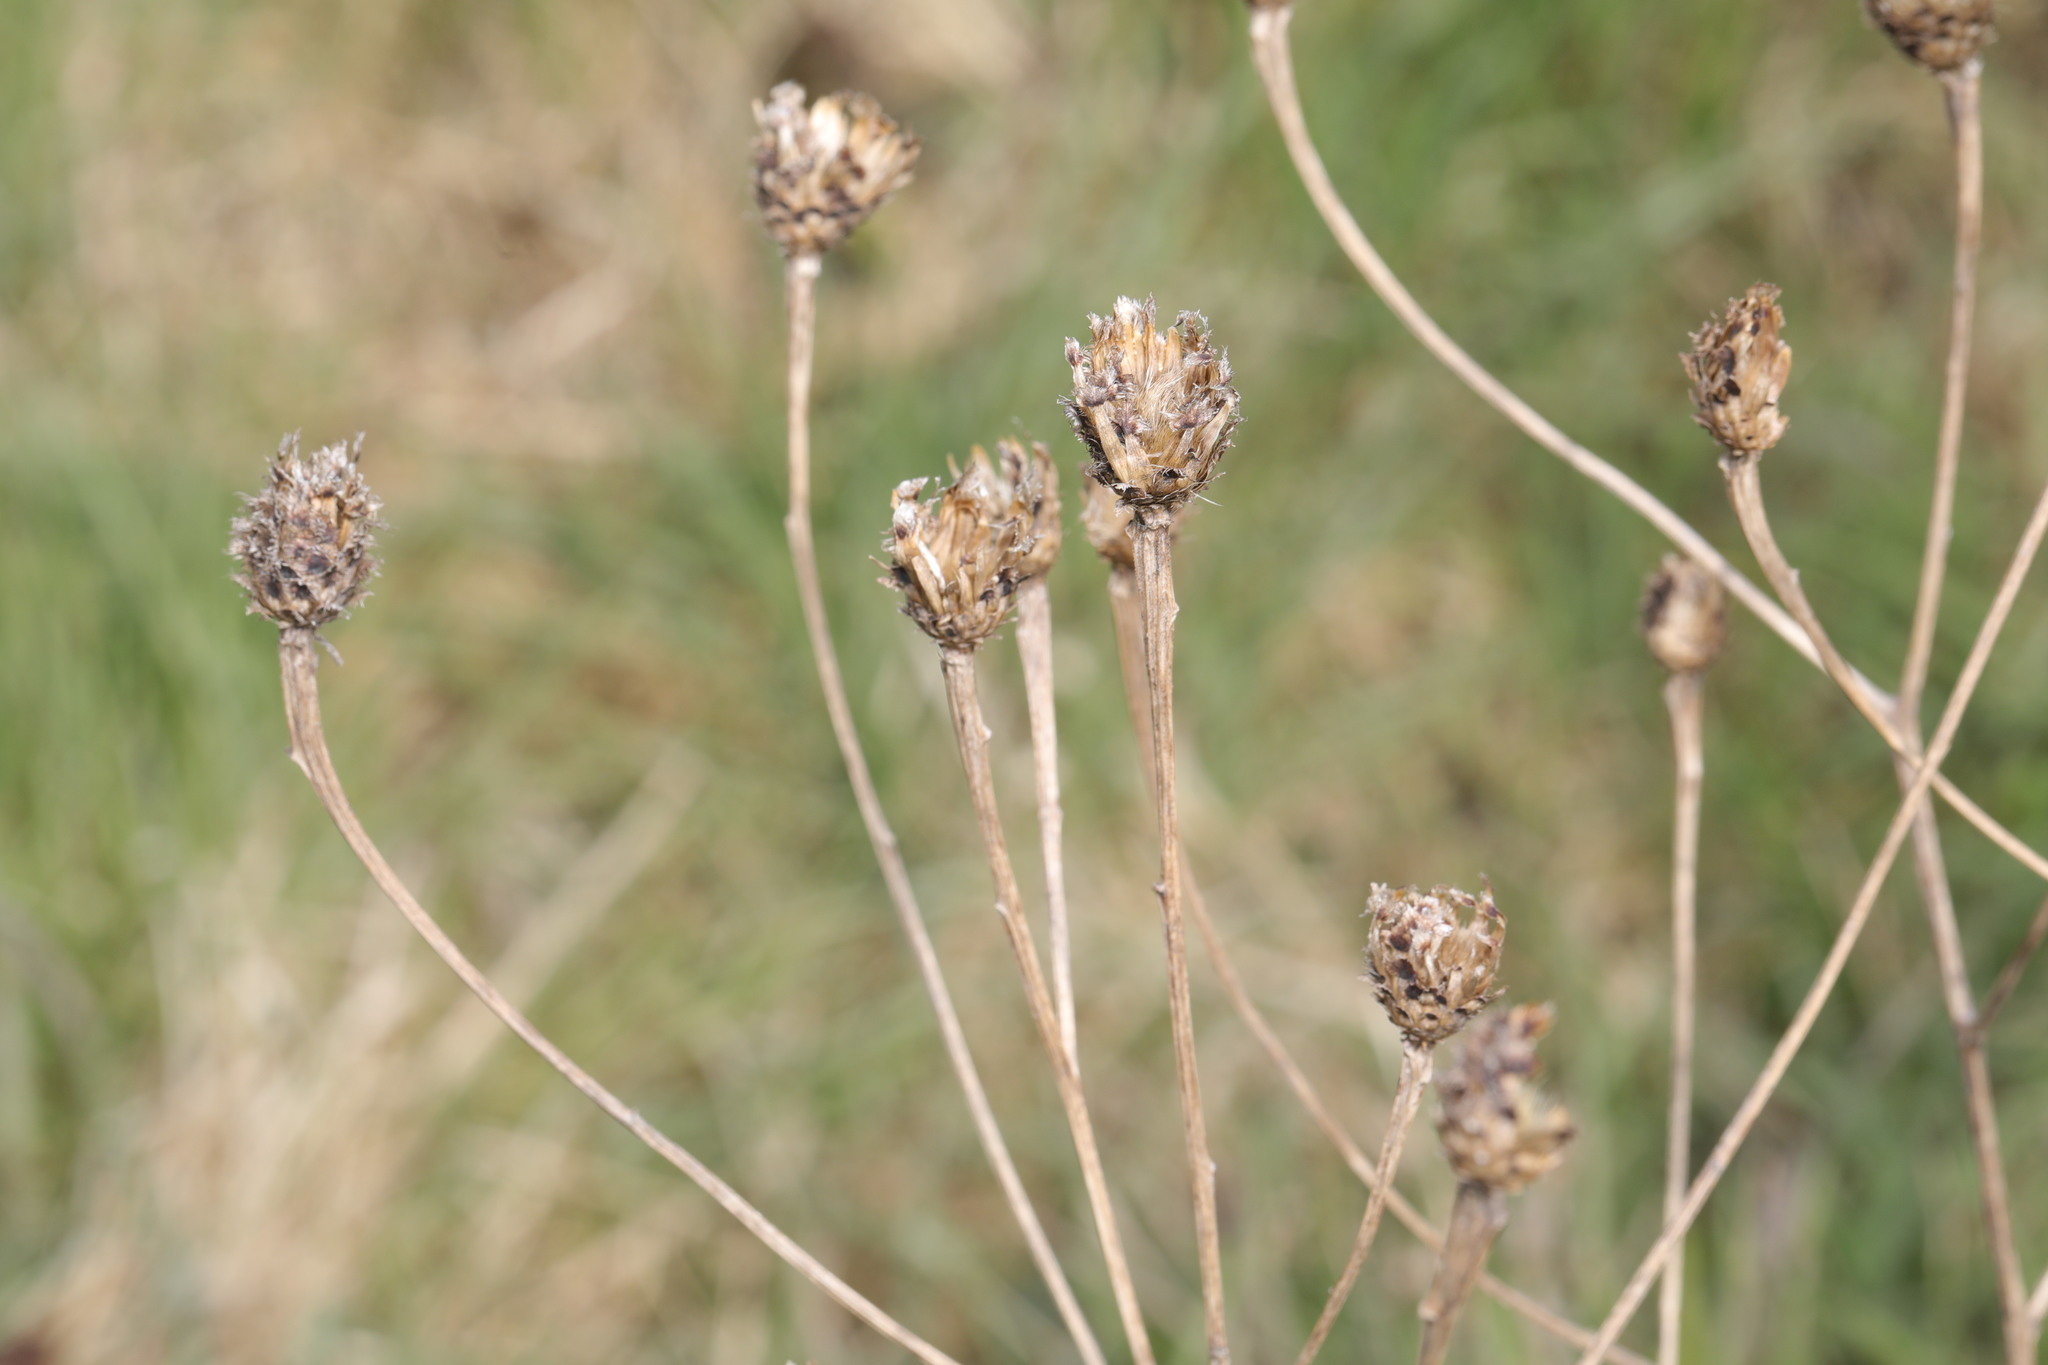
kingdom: Plantae
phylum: Tracheophyta
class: Magnoliopsida
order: Asterales
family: Asteraceae
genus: Centaurea
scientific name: Centaurea nigra
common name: Lesser knapweed
